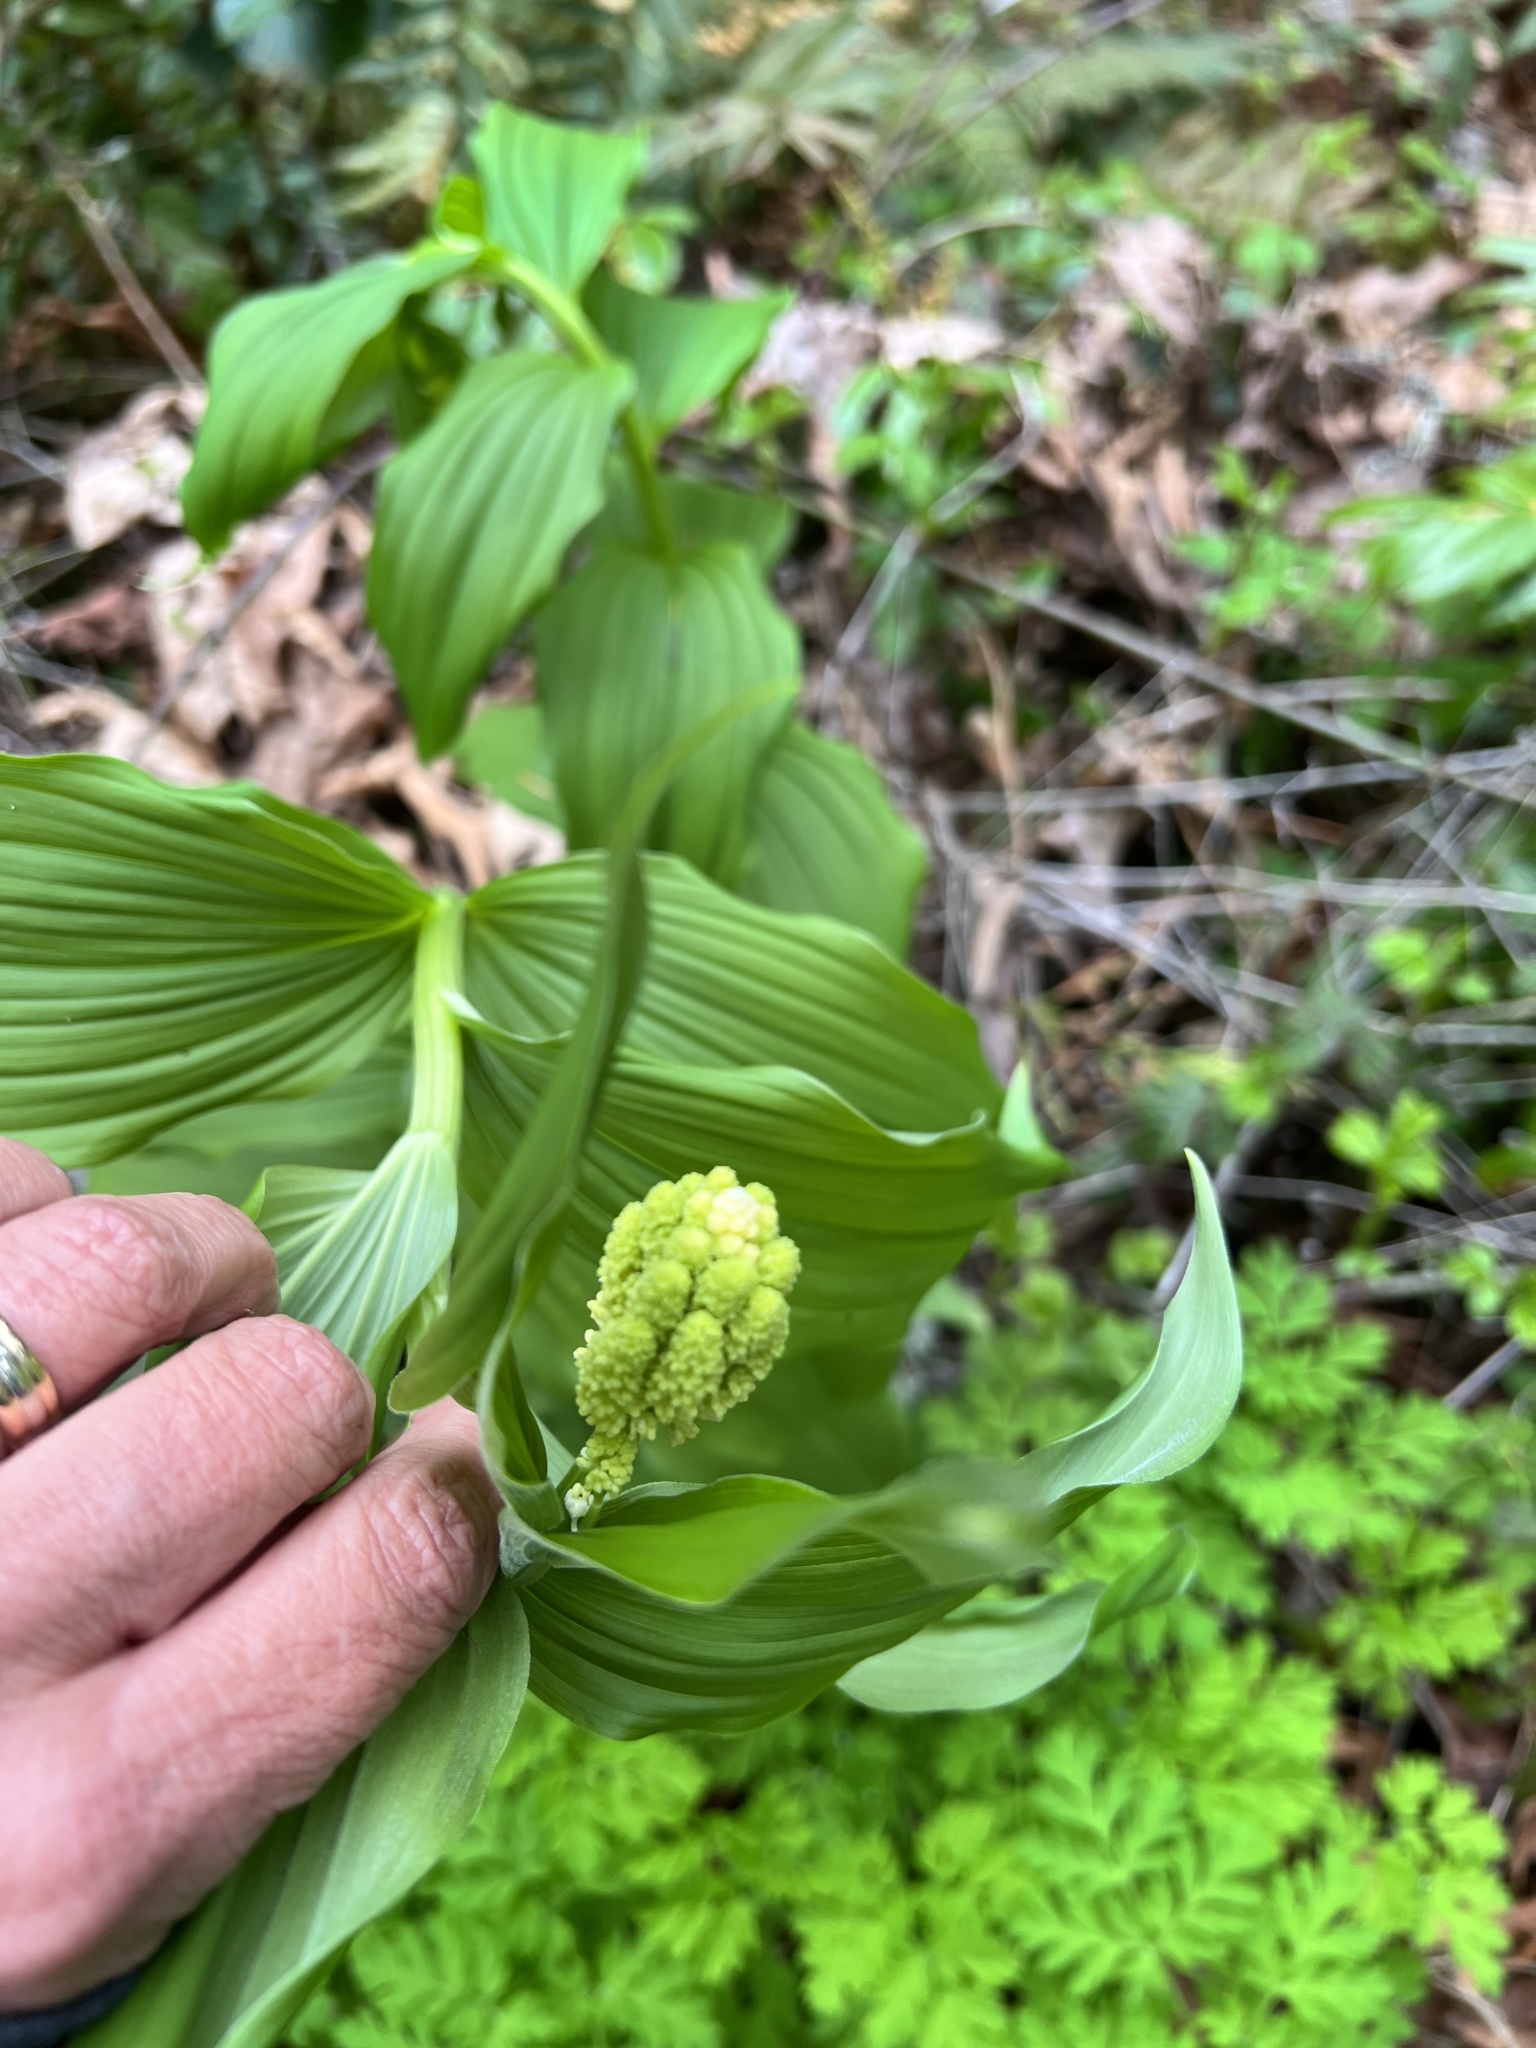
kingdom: Plantae
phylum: Tracheophyta
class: Liliopsida
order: Asparagales
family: Asparagaceae
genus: Maianthemum
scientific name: Maianthemum racemosum
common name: False spikenard
